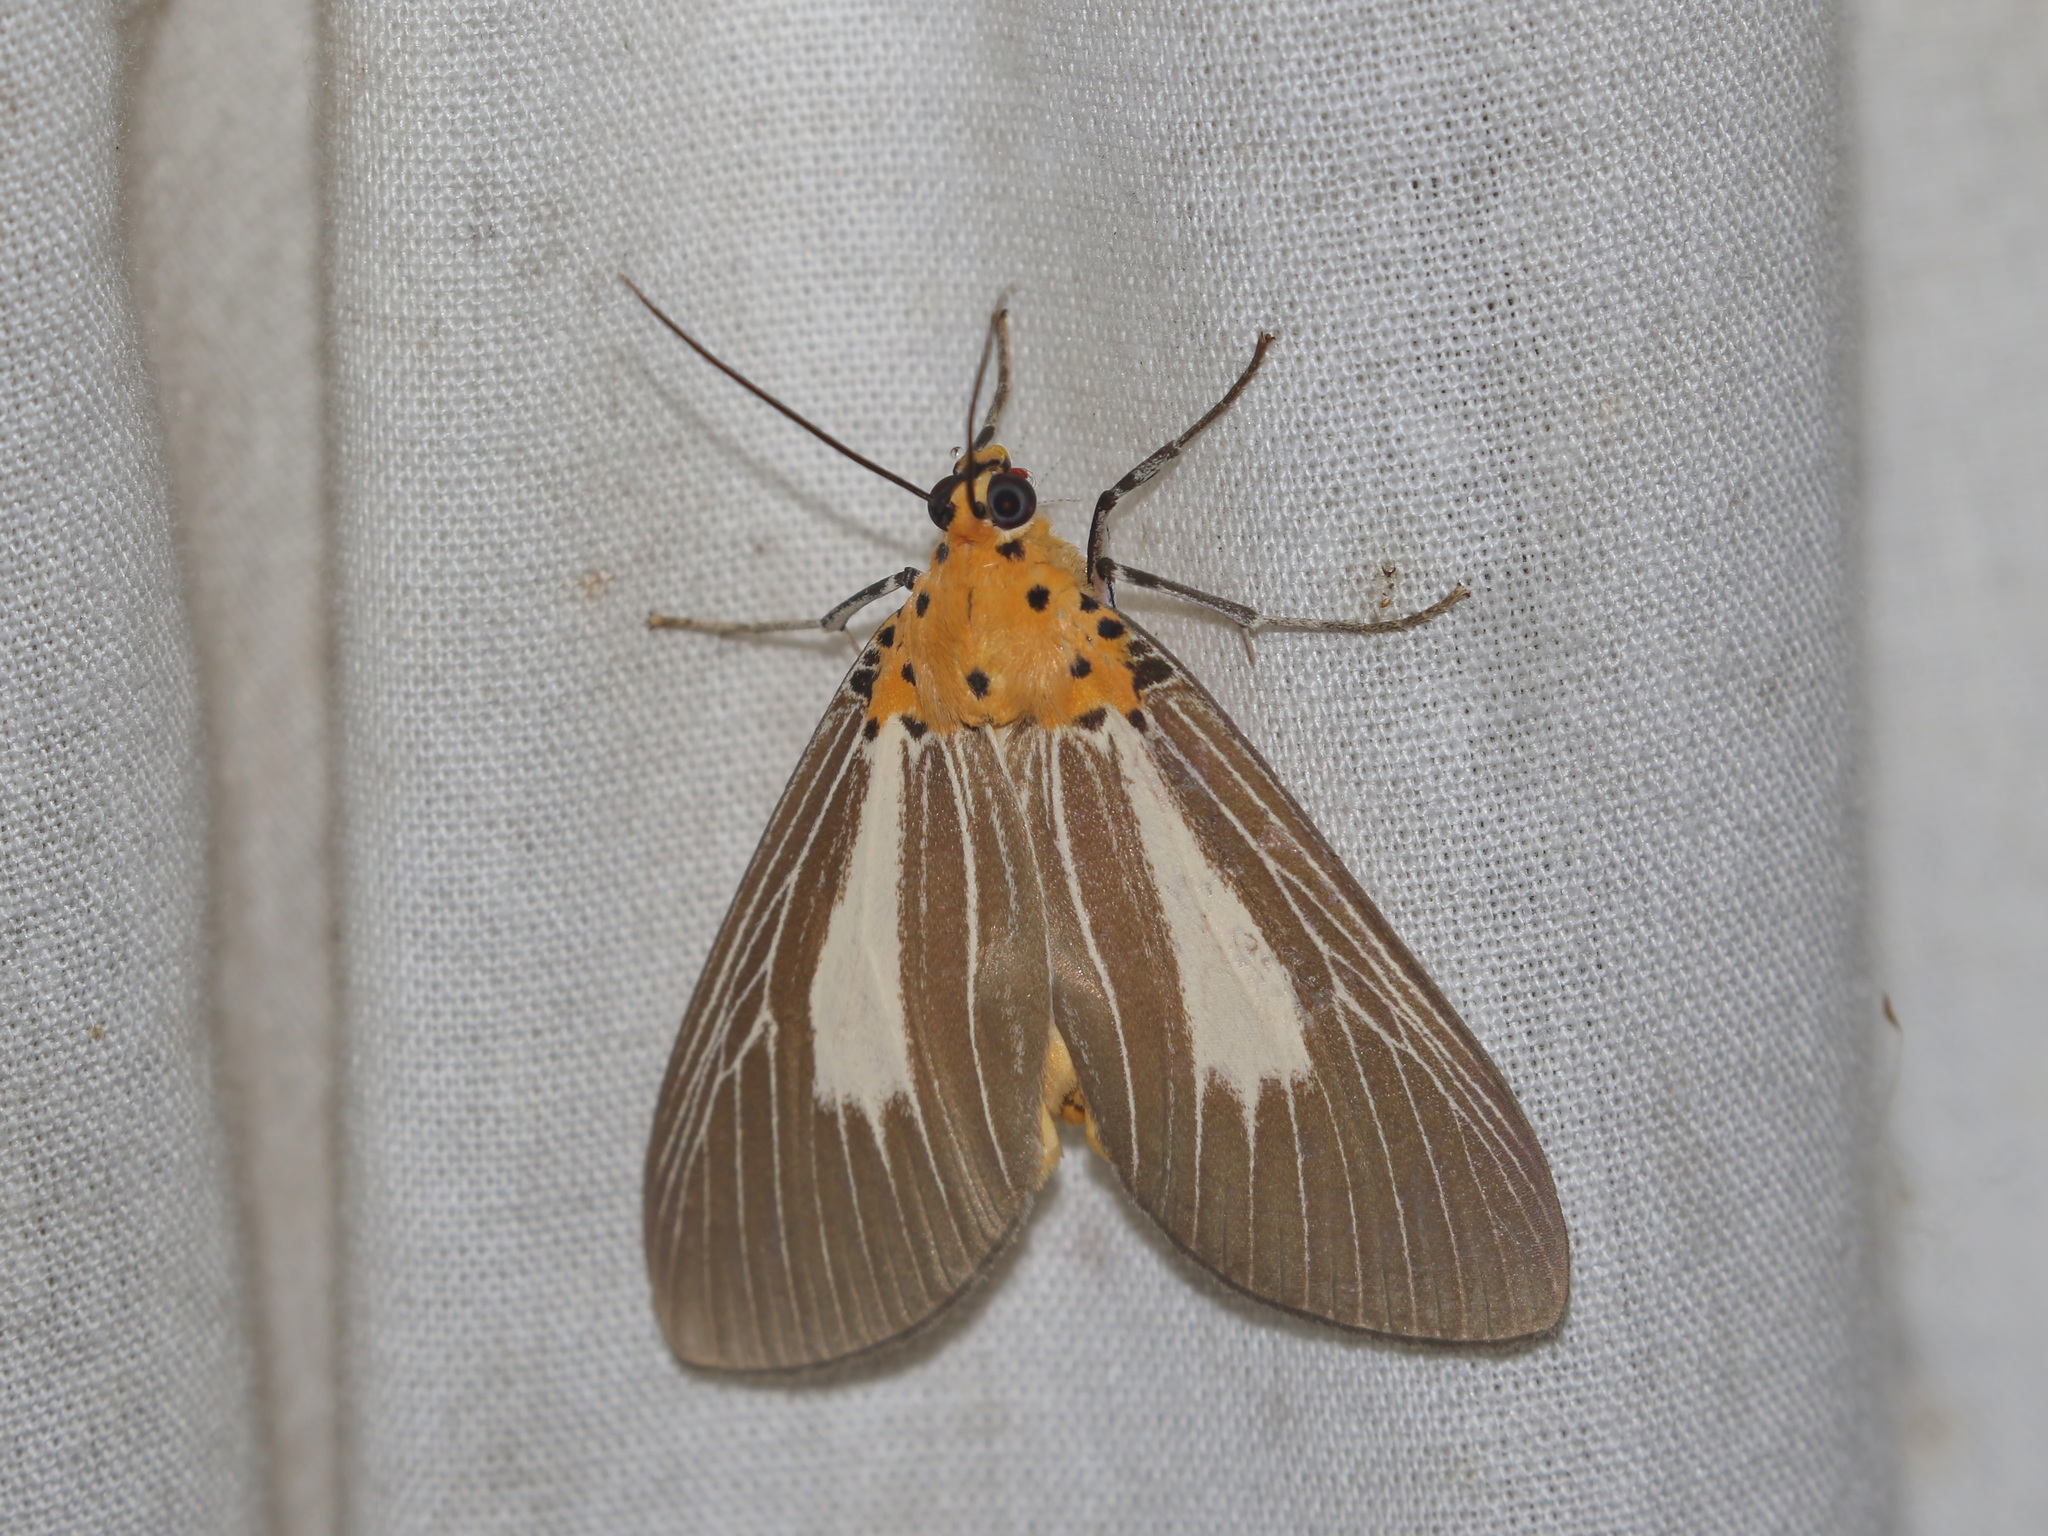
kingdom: Animalia
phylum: Arthropoda
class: Insecta
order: Lepidoptera
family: Erebidae
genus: Asota
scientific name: Asota subsimilis
